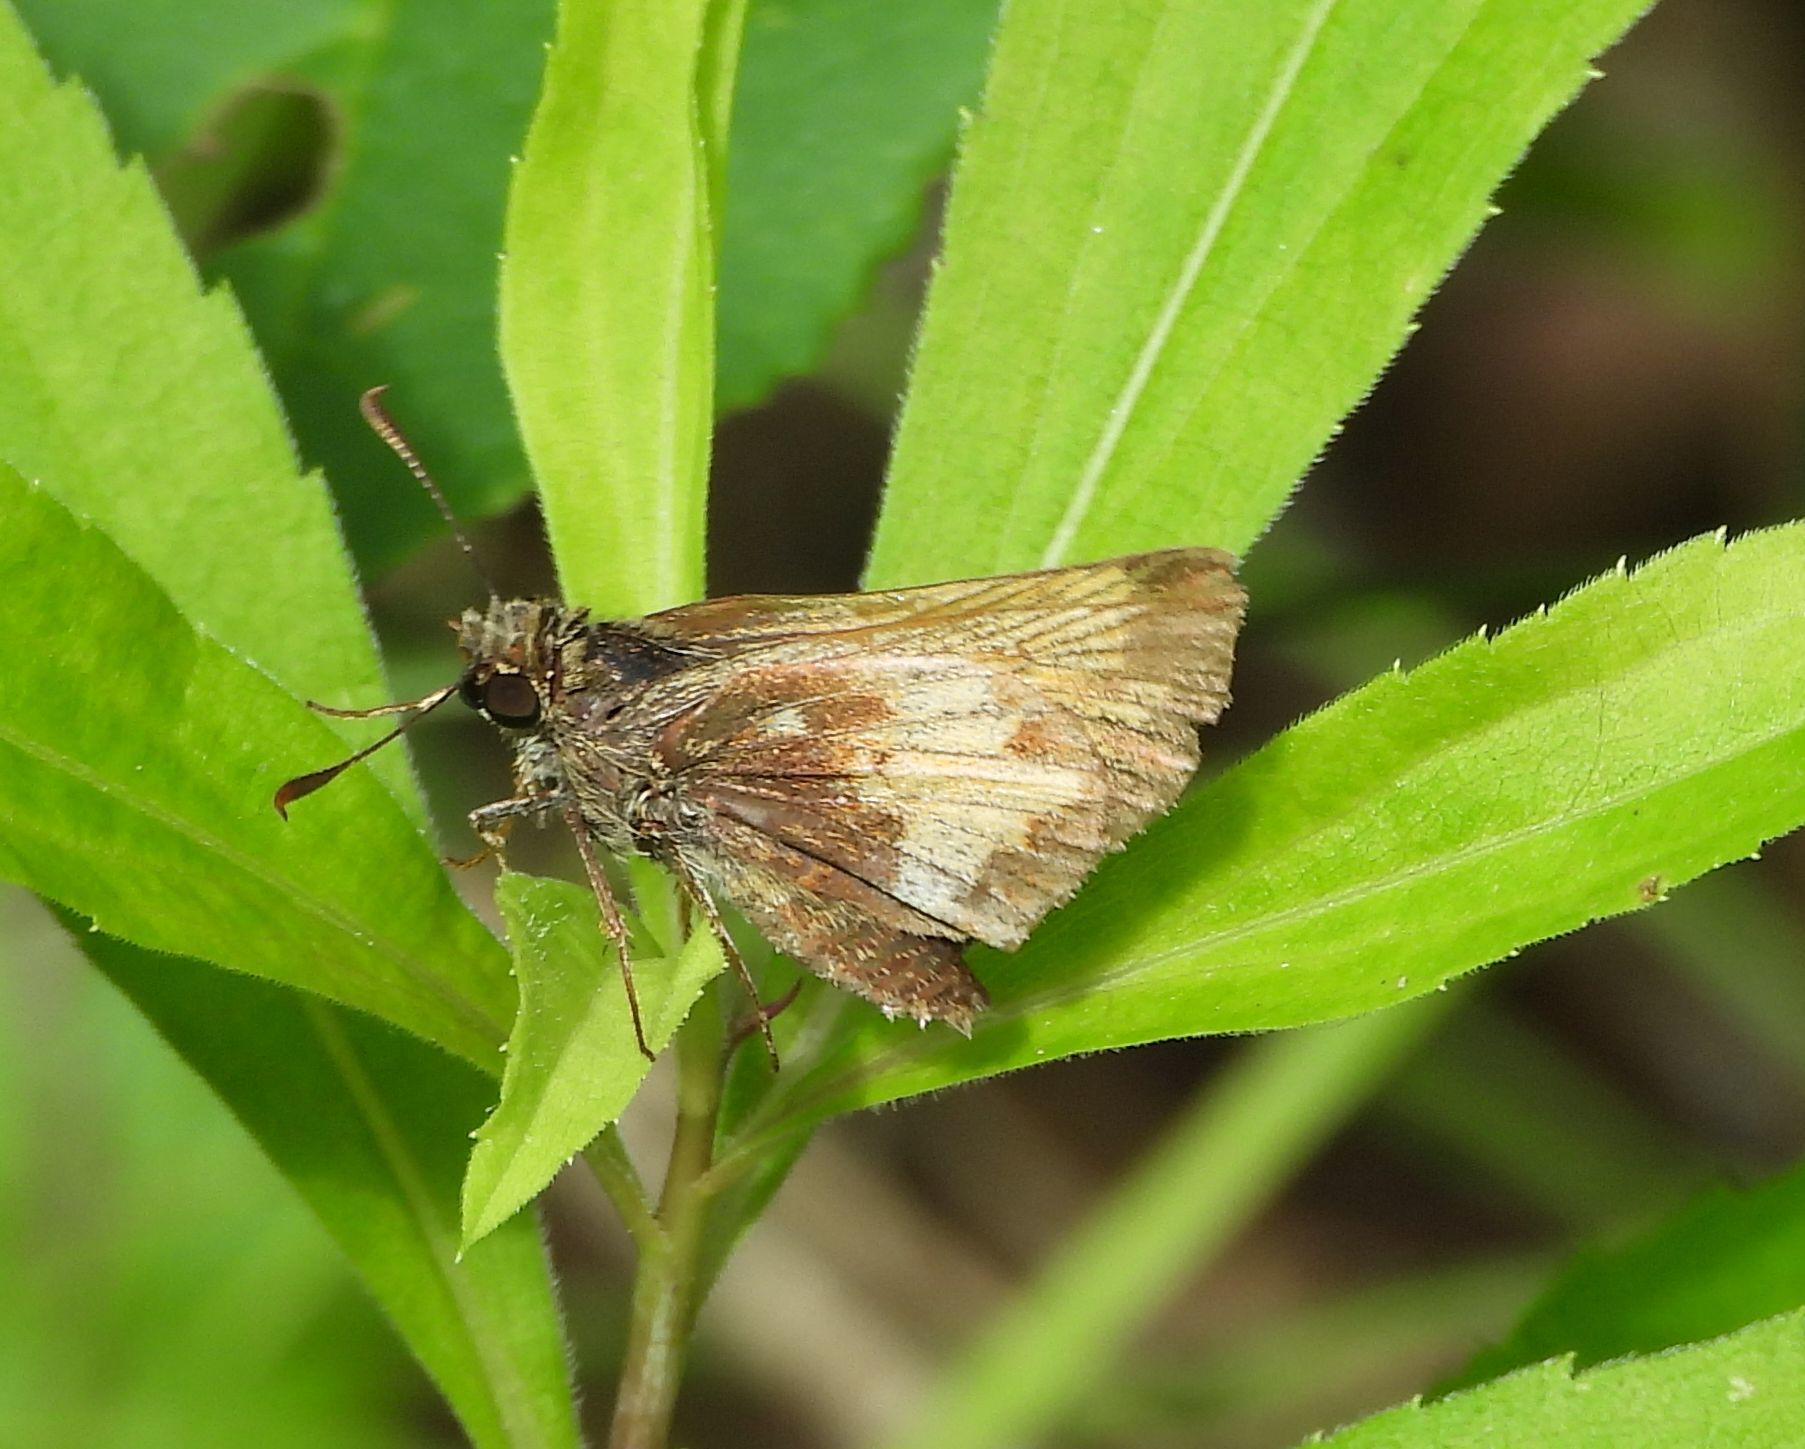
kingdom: Animalia
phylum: Arthropoda
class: Insecta
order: Lepidoptera
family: Hesperiidae
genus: Lon
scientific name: Lon hobomok
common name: Hobomok skipper
